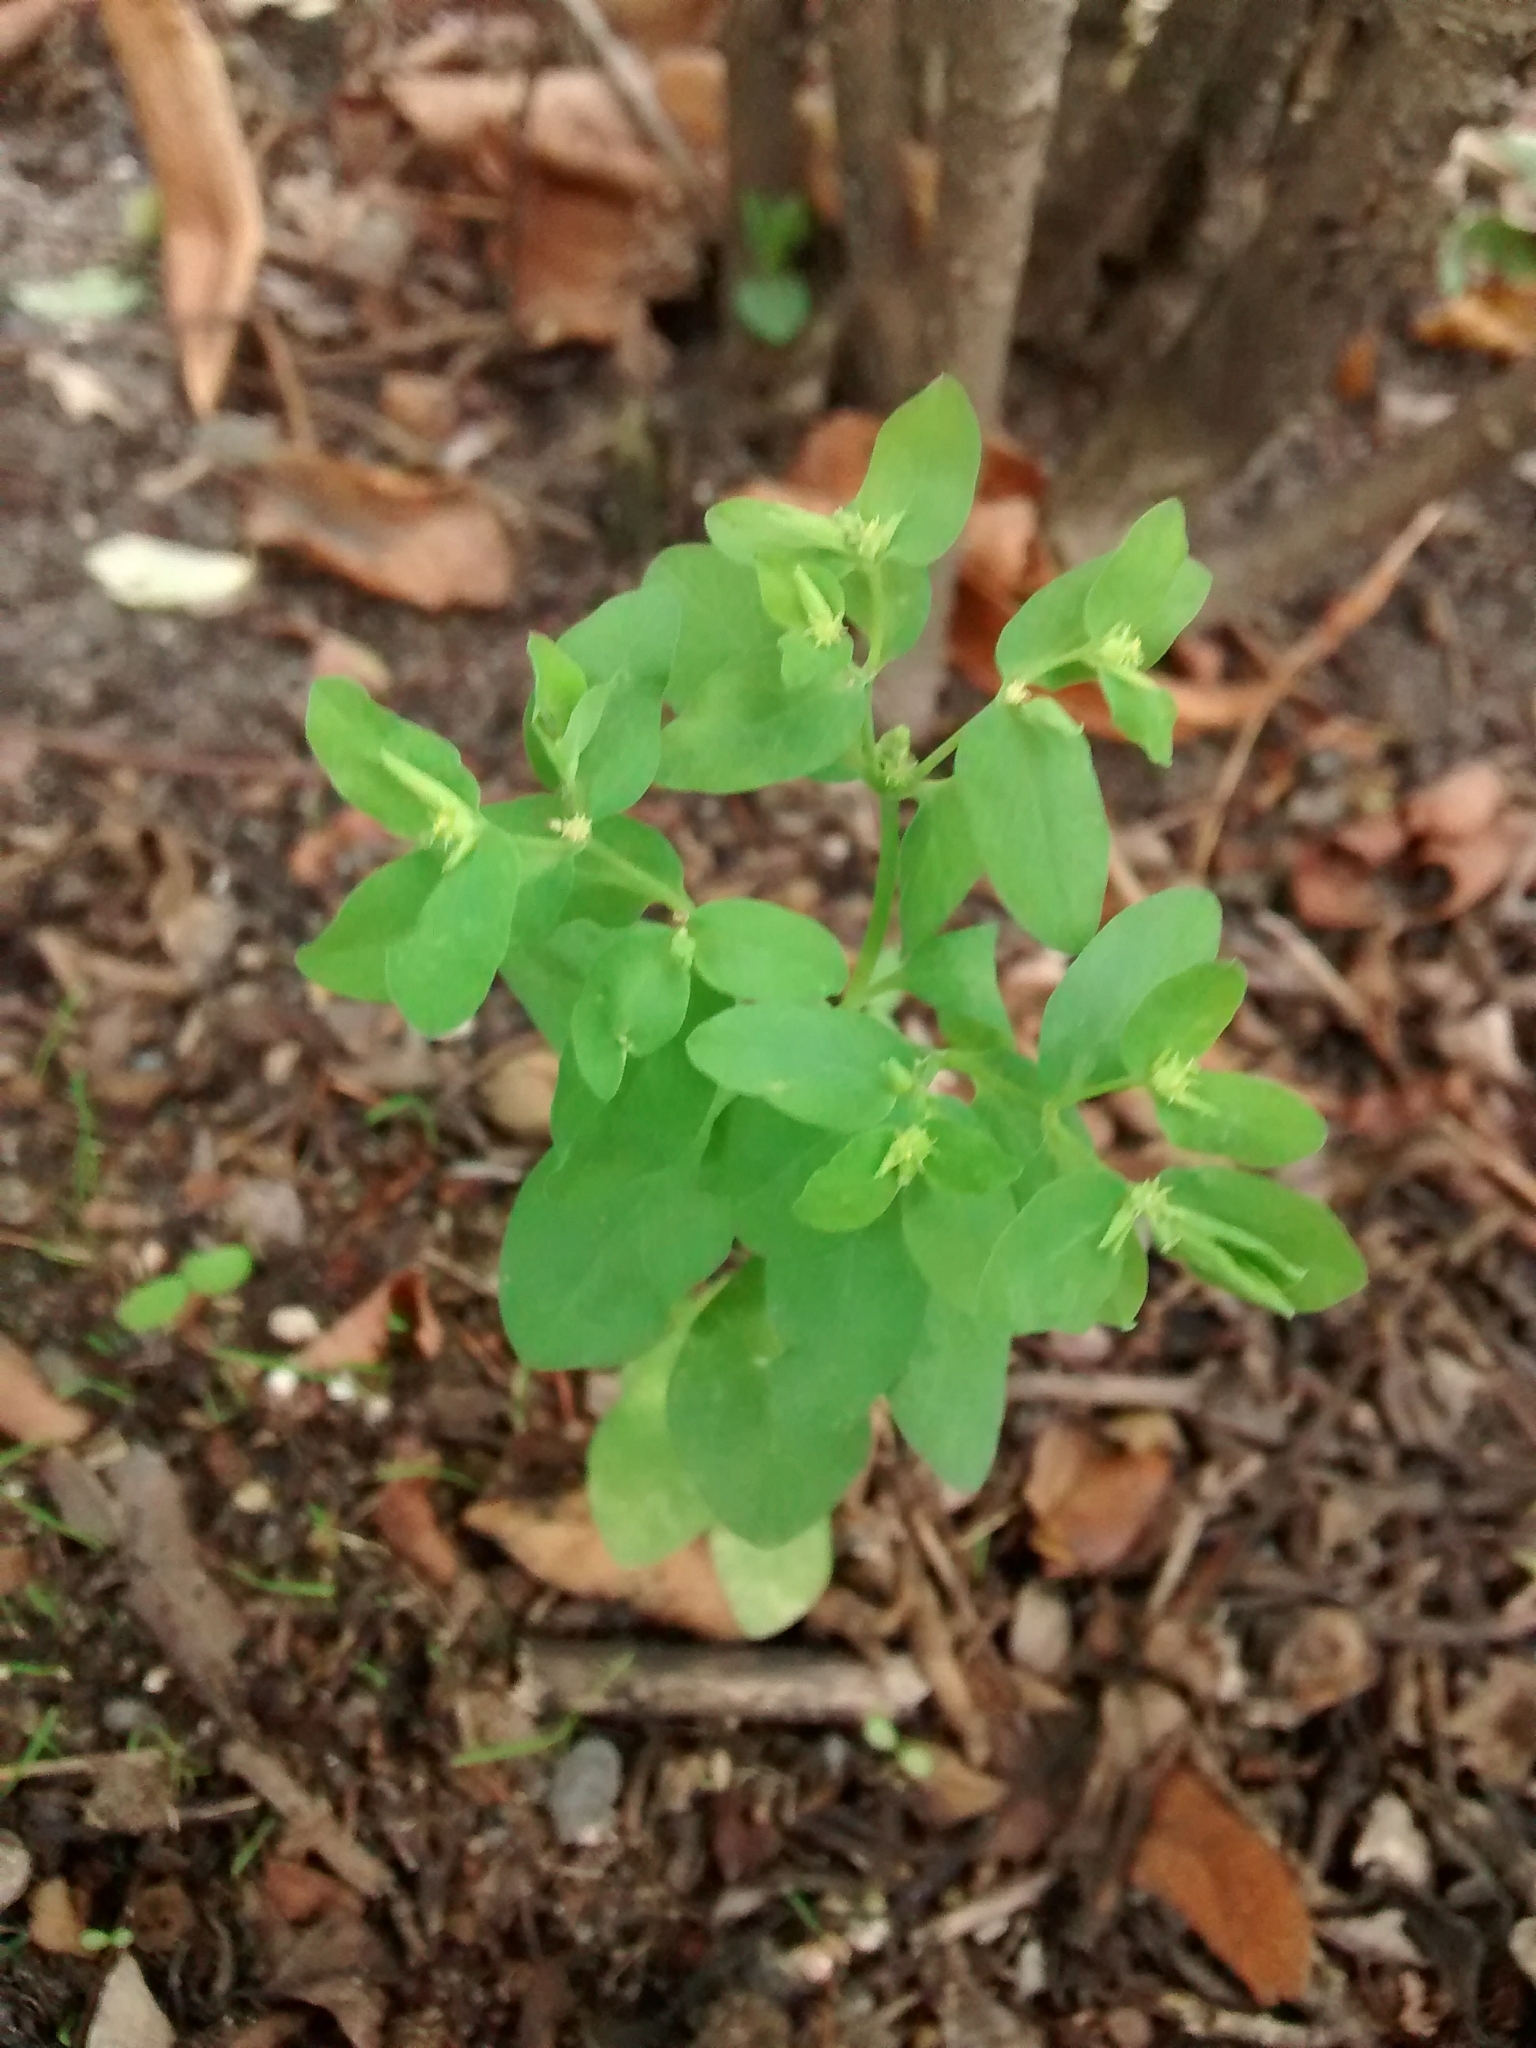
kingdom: Plantae
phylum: Tracheophyta
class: Magnoliopsida
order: Malpighiales
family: Euphorbiaceae
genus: Euphorbia
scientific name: Euphorbia peplus
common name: Petty spurge
